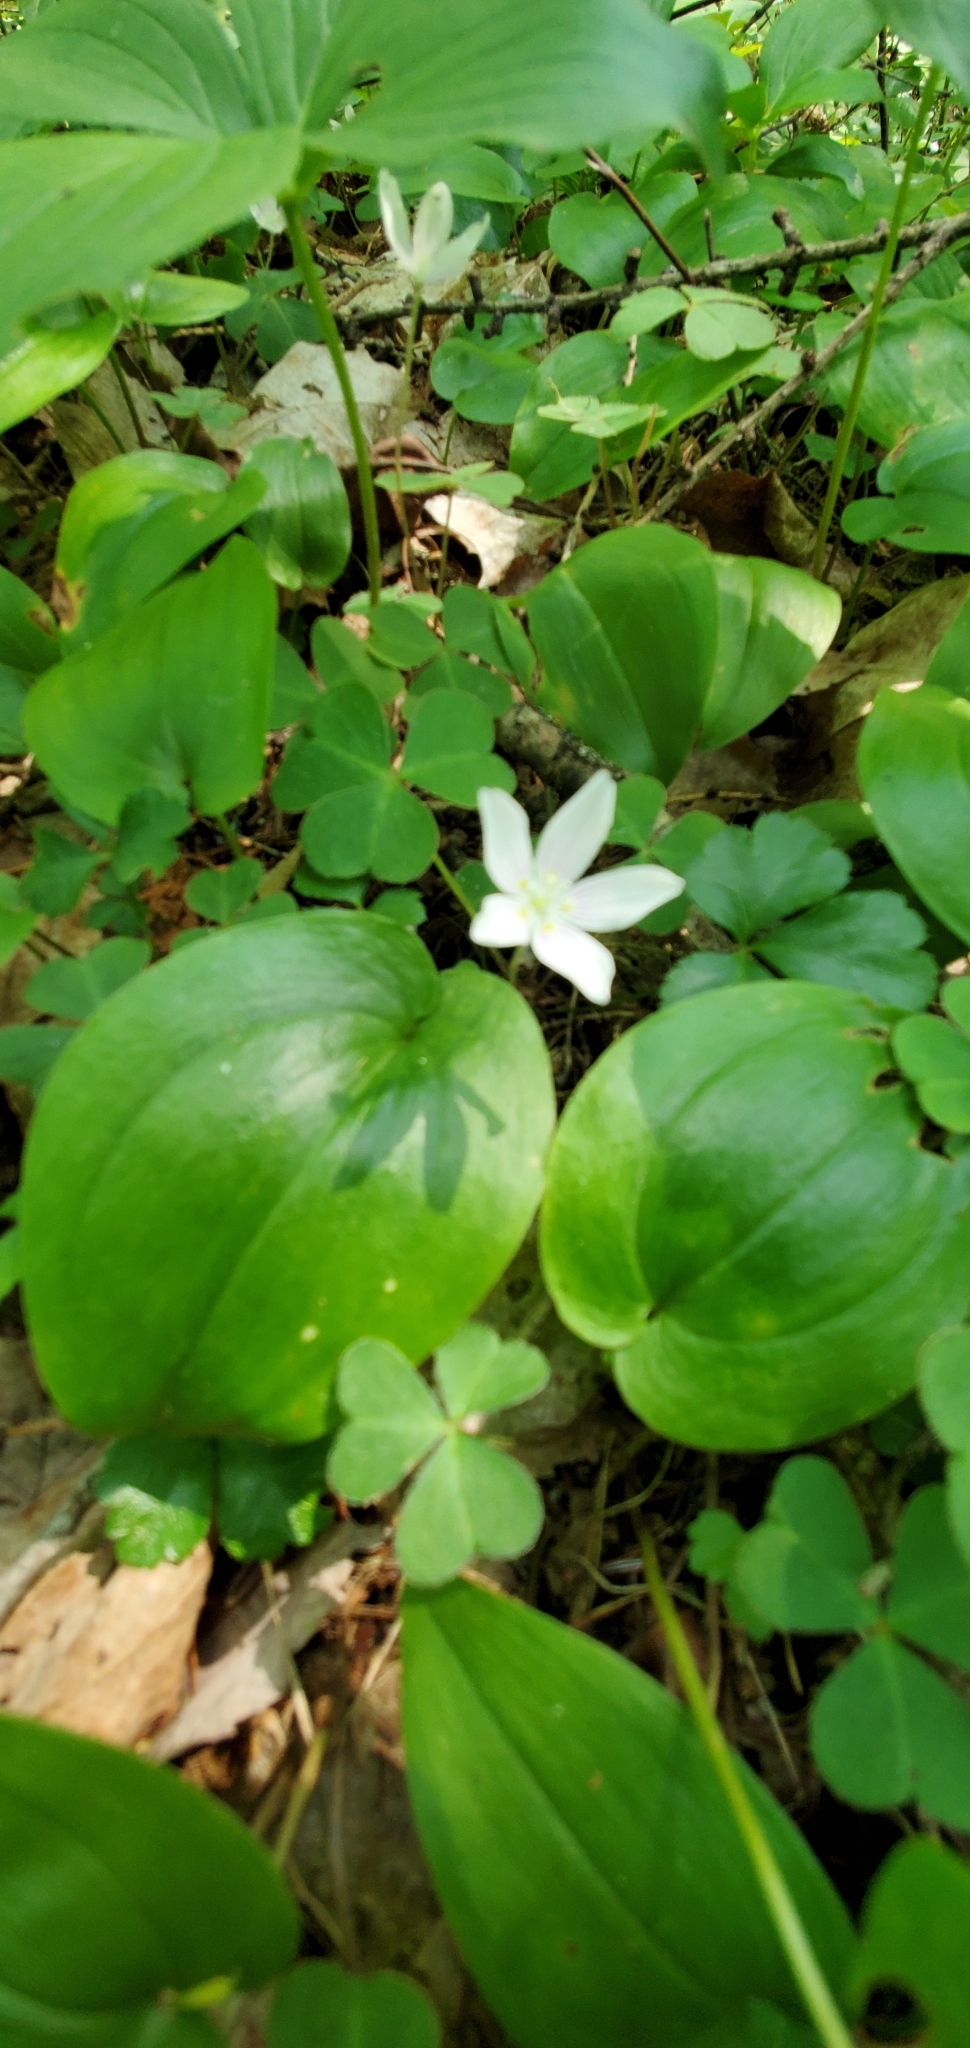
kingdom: Plantae
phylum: Tracheophyta
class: Magnoliopsida
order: Oxalidales
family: Oxalidaceae
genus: Oxalis
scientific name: Oxalis montana
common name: American wood-sorrel
